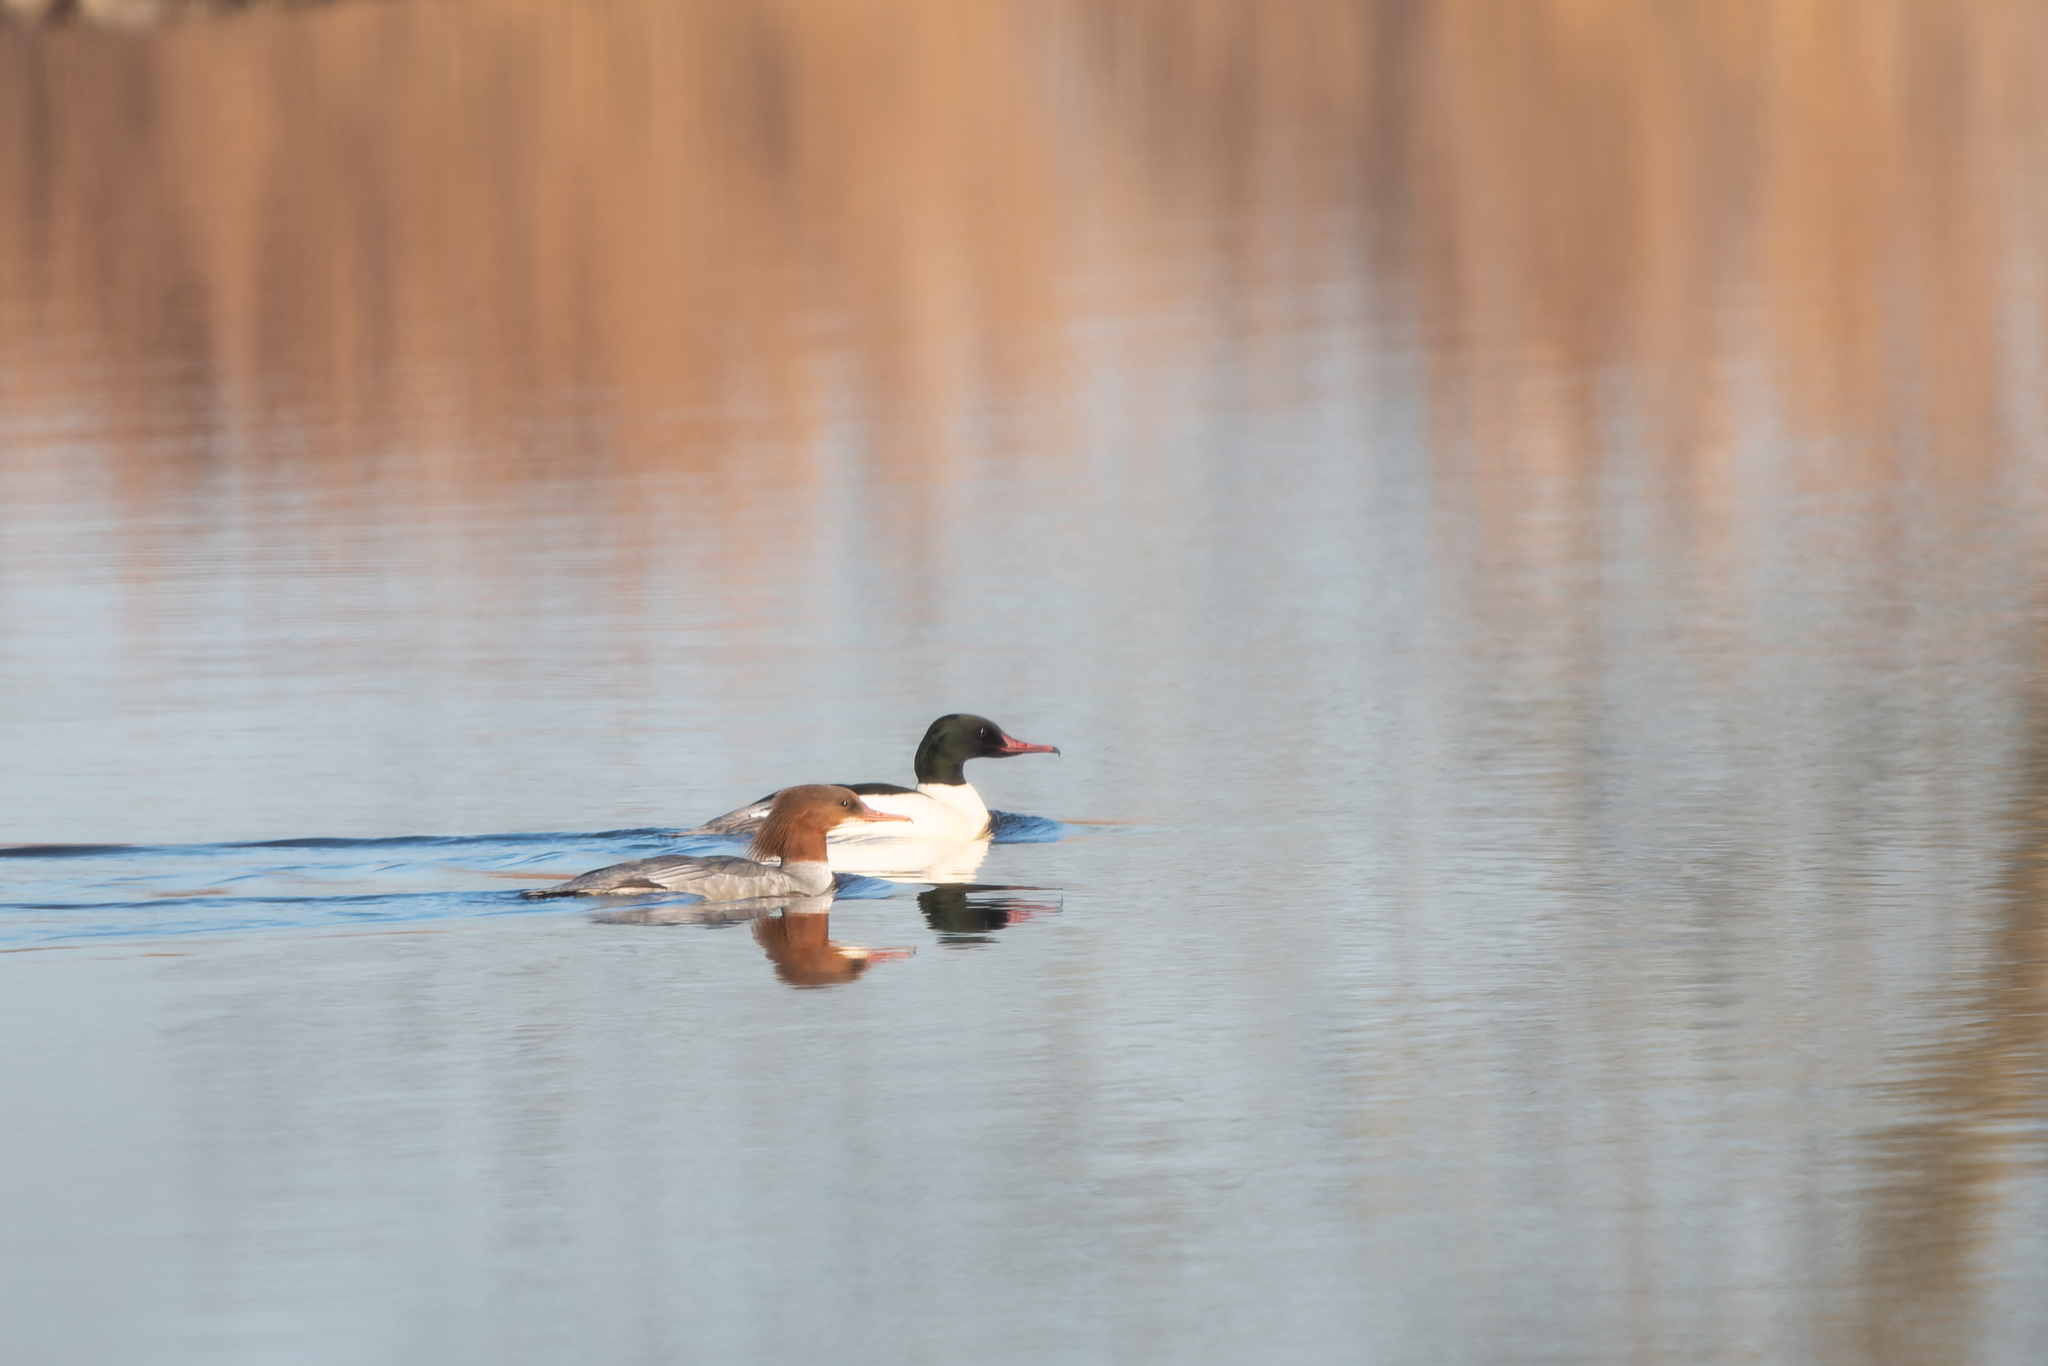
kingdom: Animalia
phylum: Chordata
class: Aves
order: Anseriformes
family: Anatidae
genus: Mergus
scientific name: Mergus merganser
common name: Common merganser
